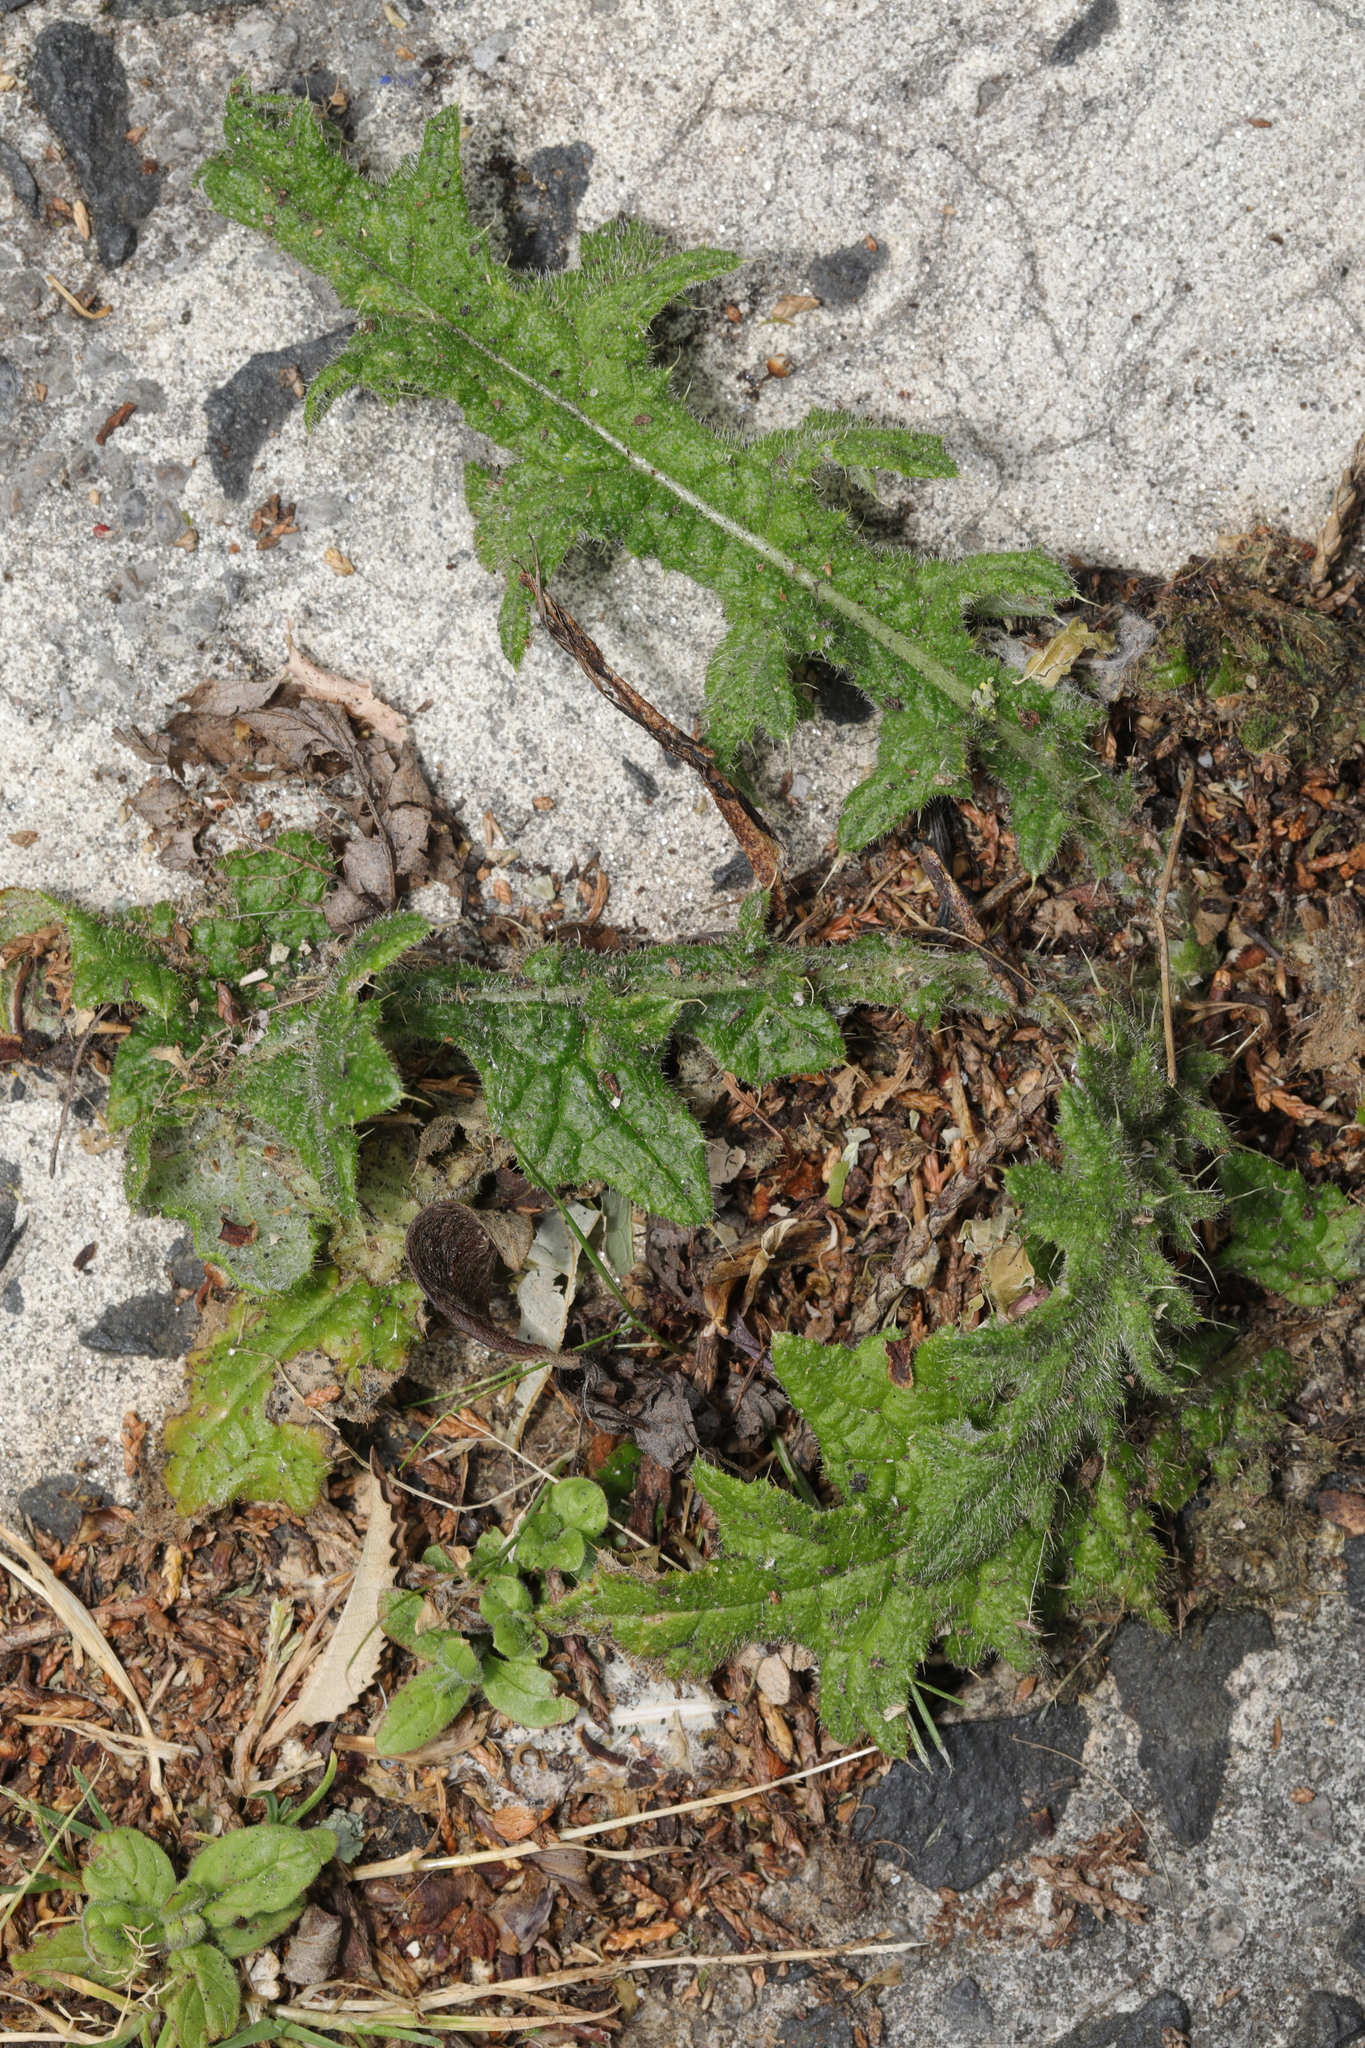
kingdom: Plantae
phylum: Tracheophyta
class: Magnoliopsida
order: Asterales
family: Asteraceae
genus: Cirsium
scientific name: Cirsium vulgare
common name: Bull thistle
